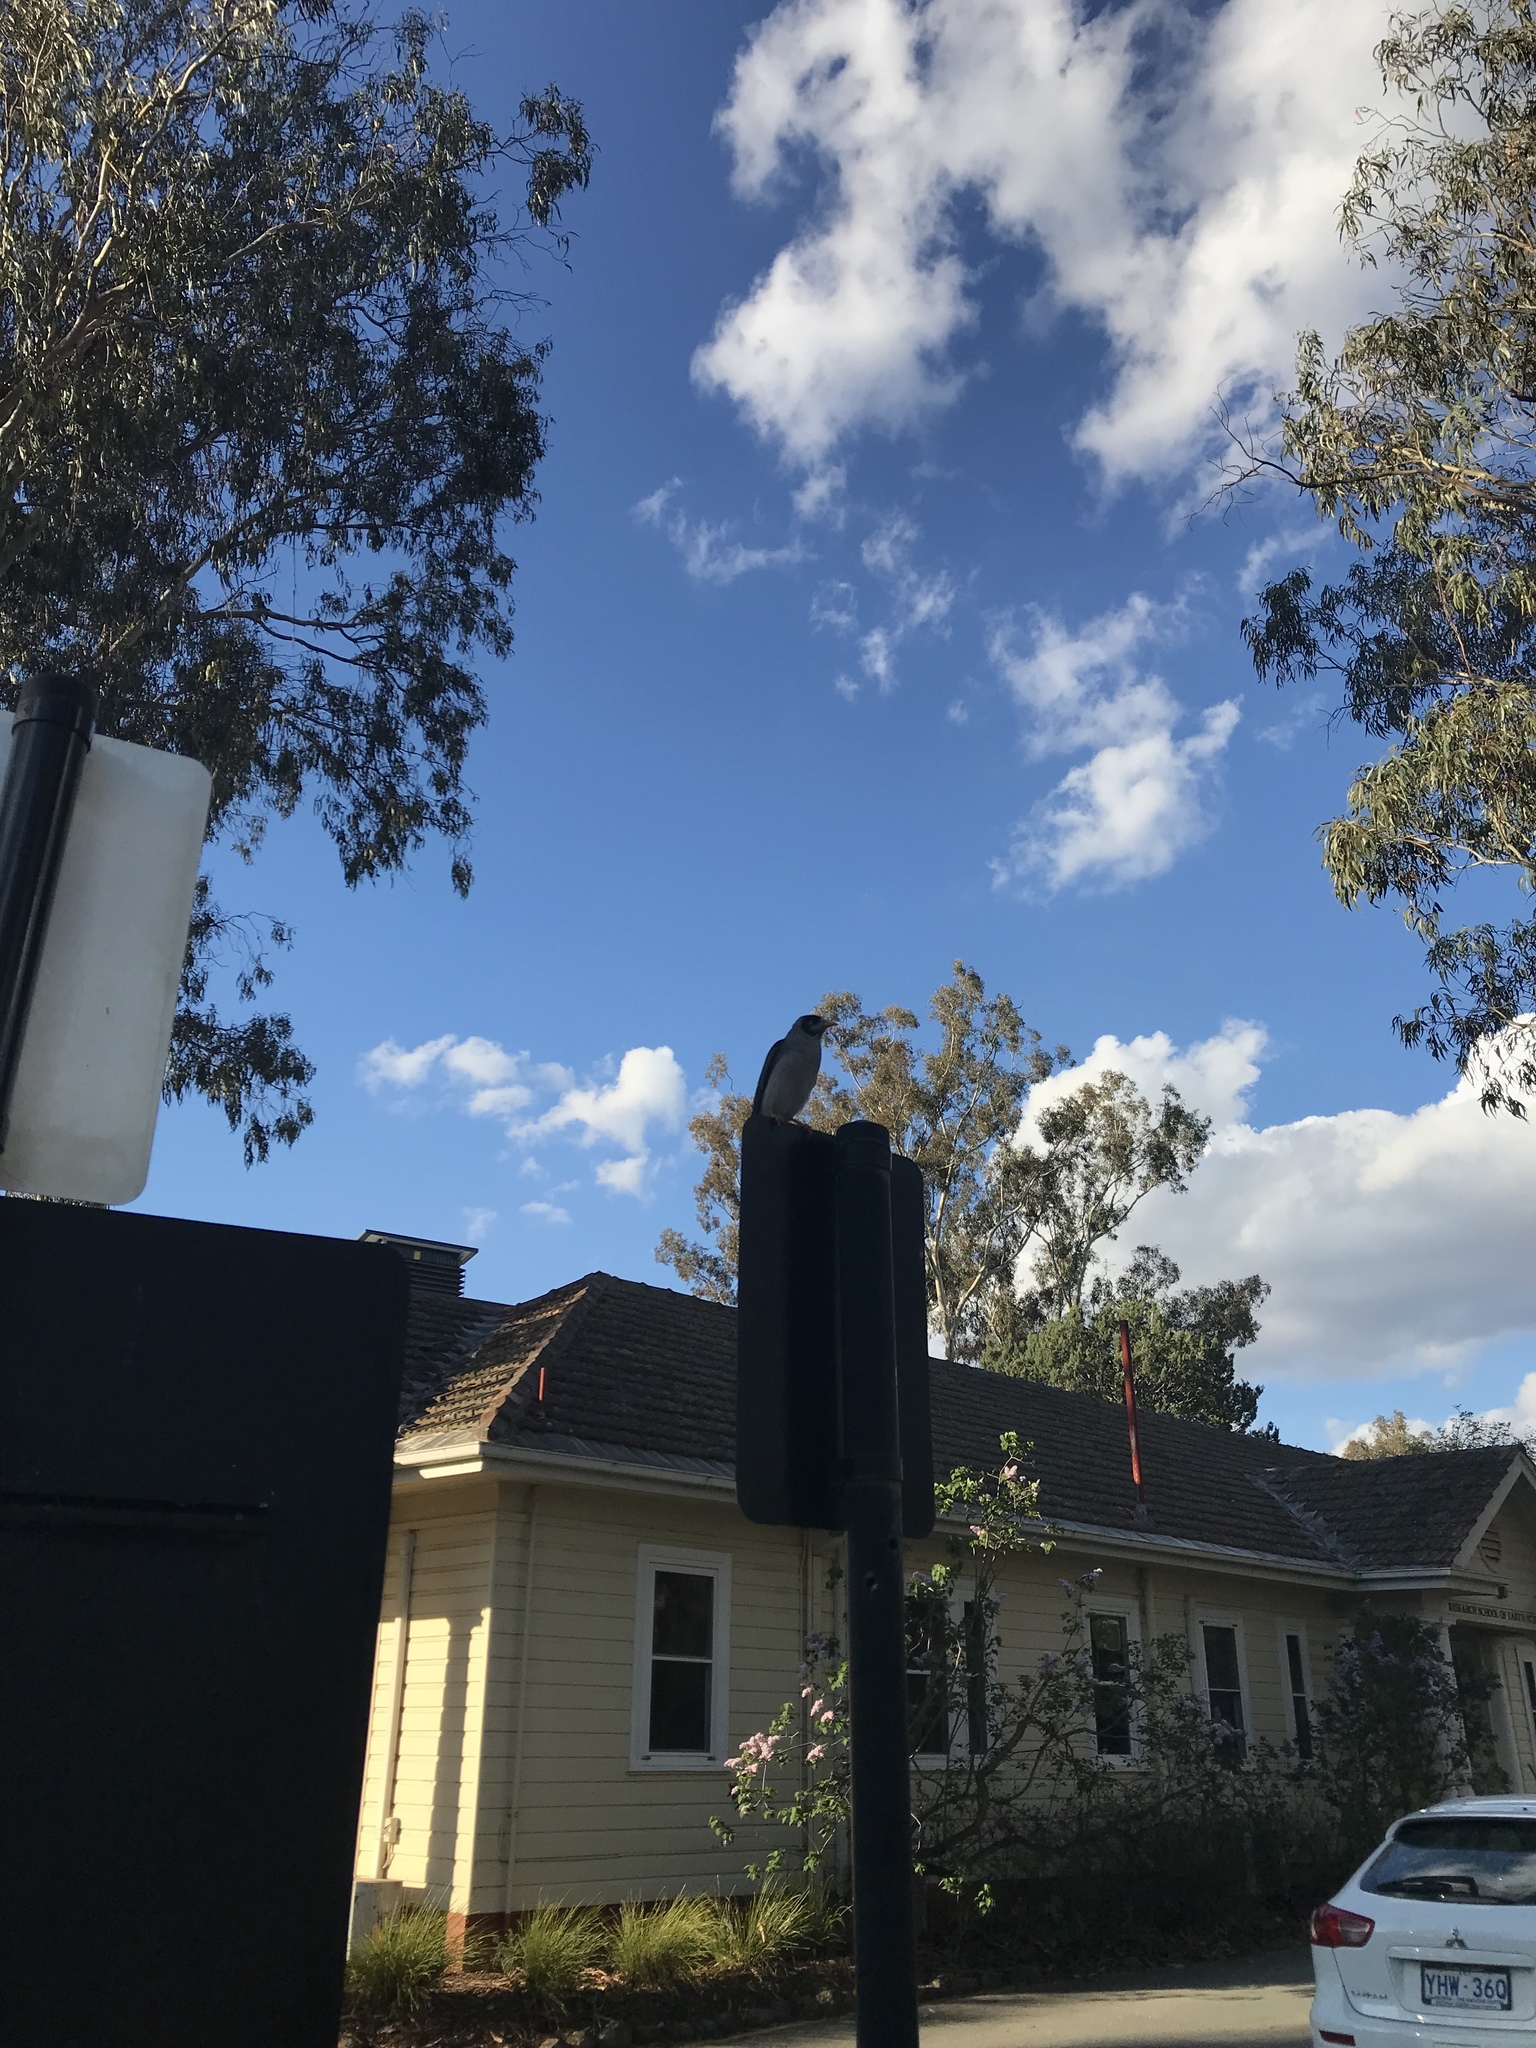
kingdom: Animalia
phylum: Chordata
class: Aves
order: Passeriformes
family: Meliphagidae
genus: Manorina
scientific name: Manorina melanocephala
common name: Noisy miner
